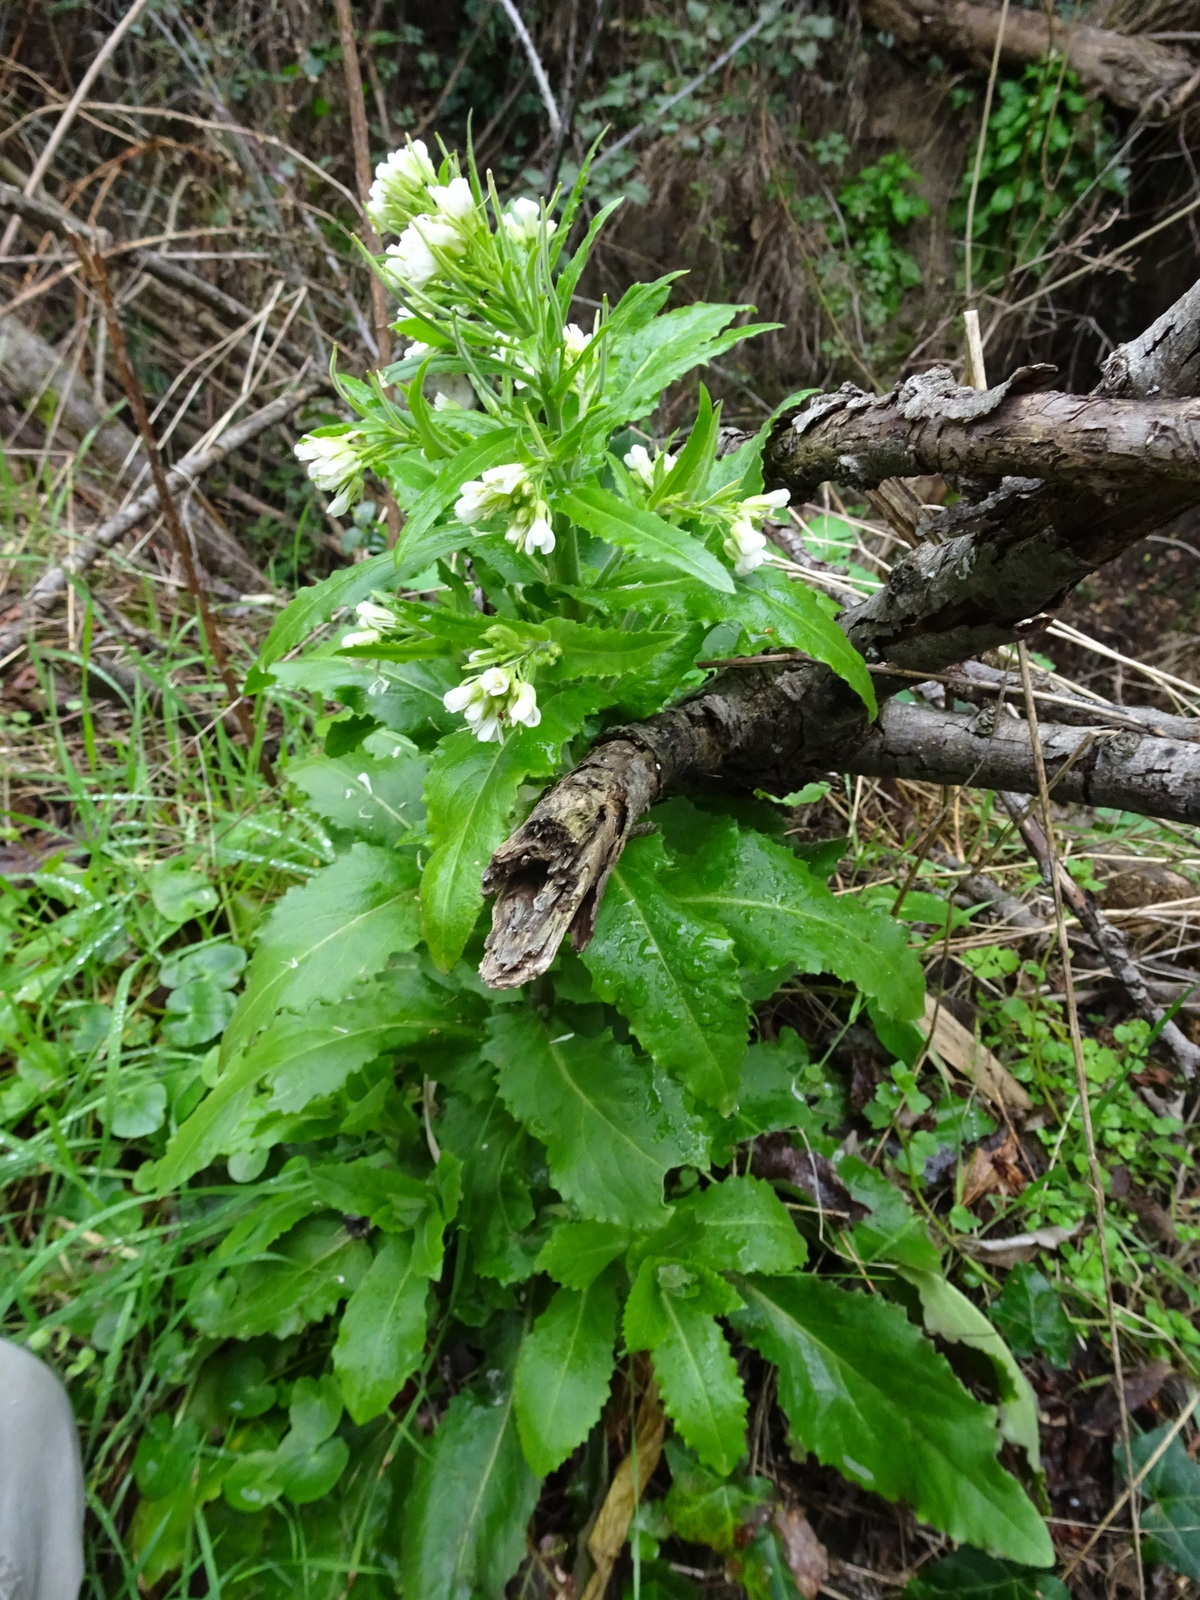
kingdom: Plantae
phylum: Tracheophyta
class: Magnoliopsida
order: Brassicales
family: Brassicaceae
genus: Pseudoturritis
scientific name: Pseudoturritis turrita
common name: Tower cress
